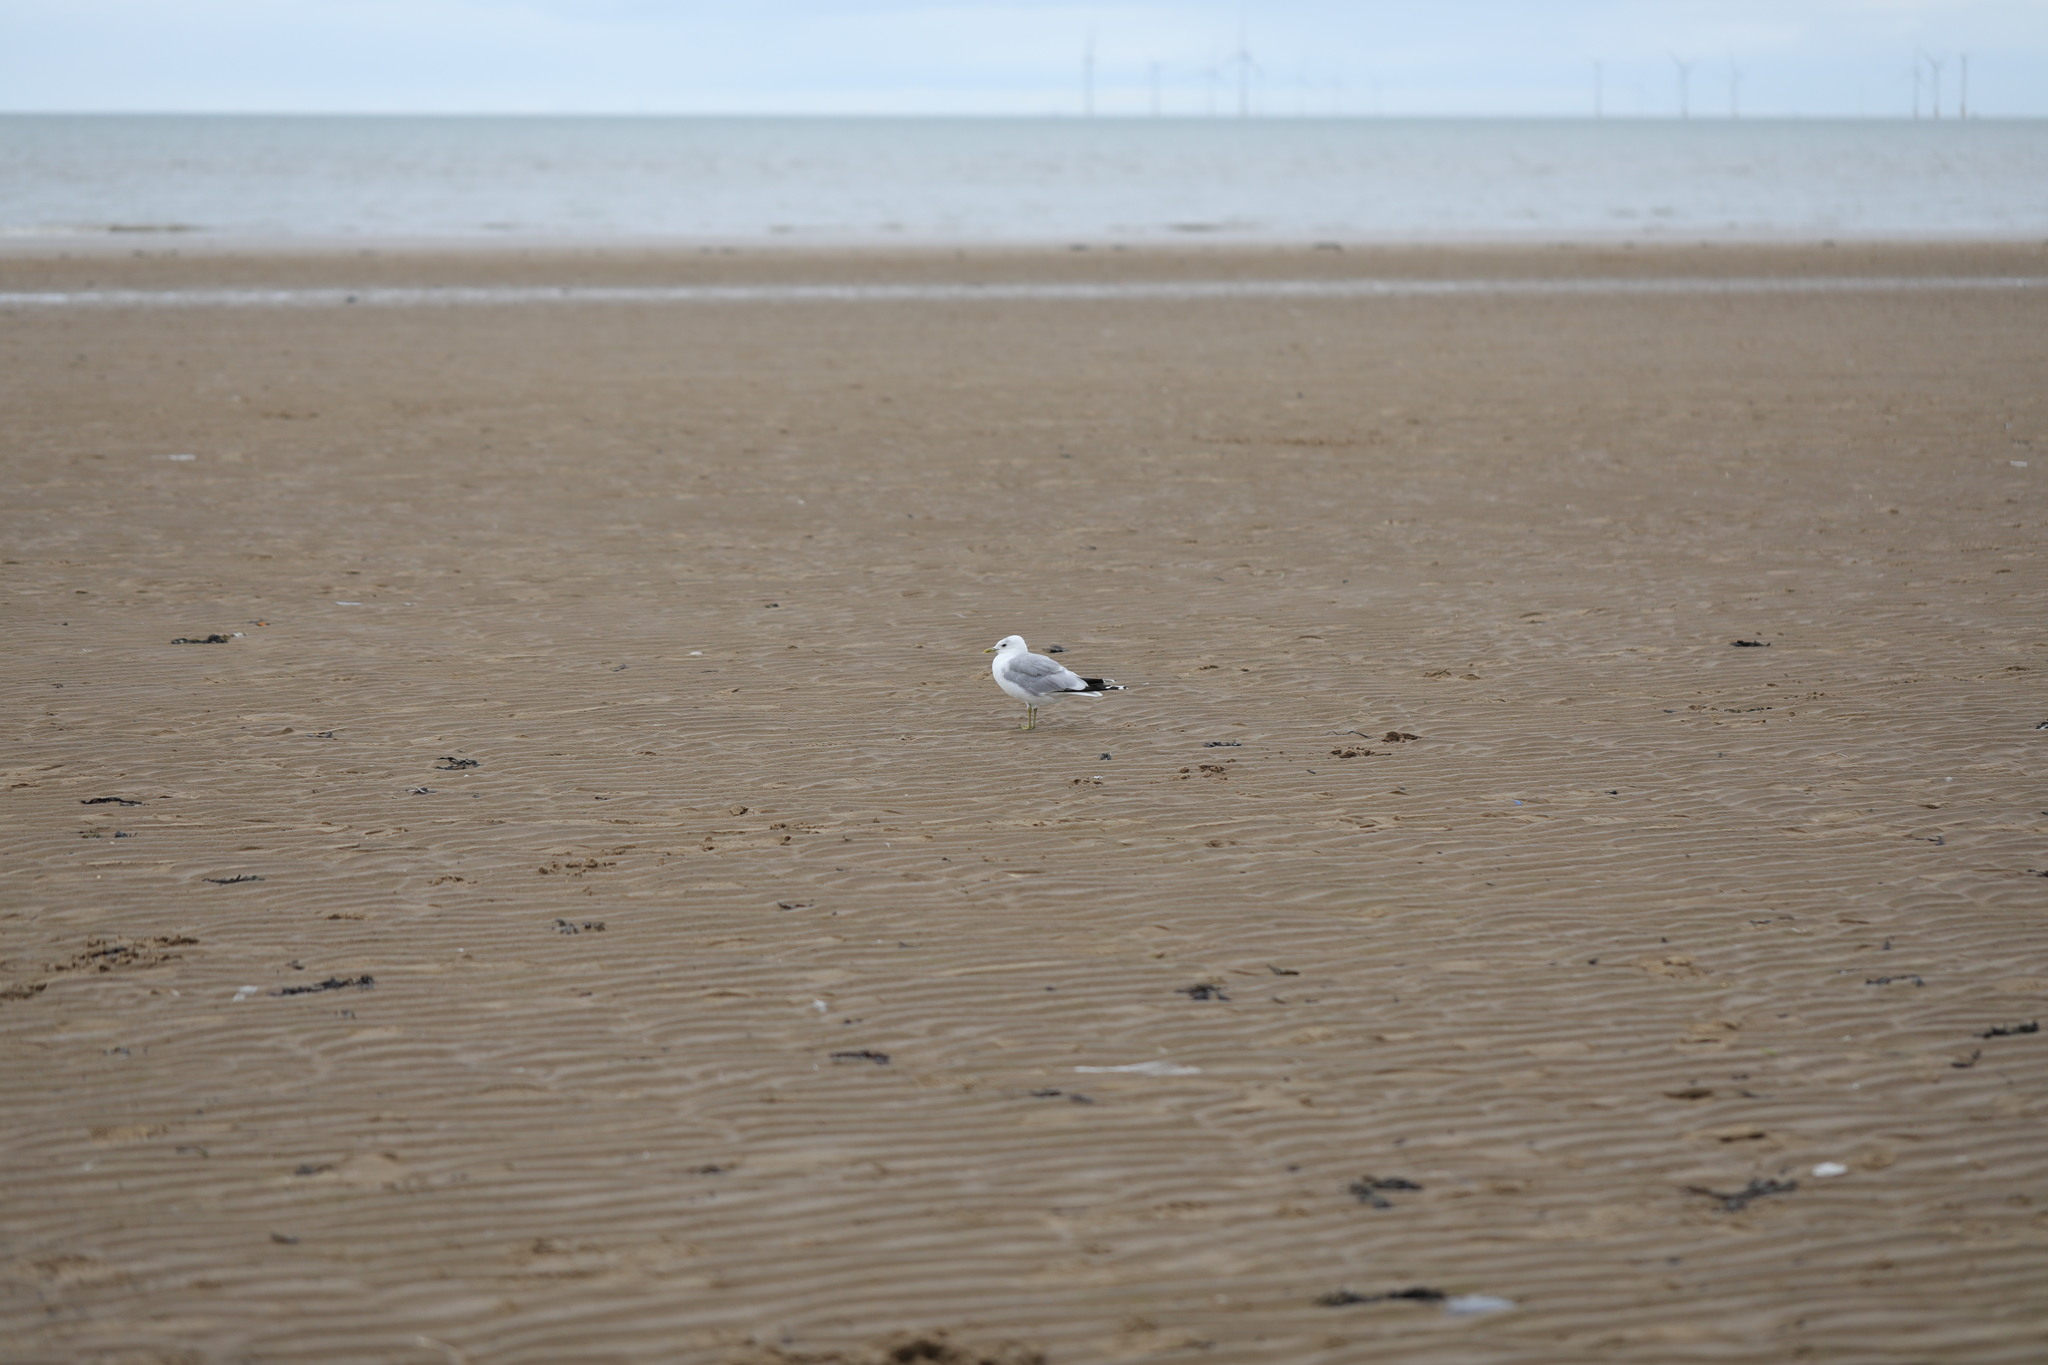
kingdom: Animalia
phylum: Chordata
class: Aves
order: Charadriiformes
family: Laridae
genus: Larus
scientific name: Larus canus
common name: Mew gull
